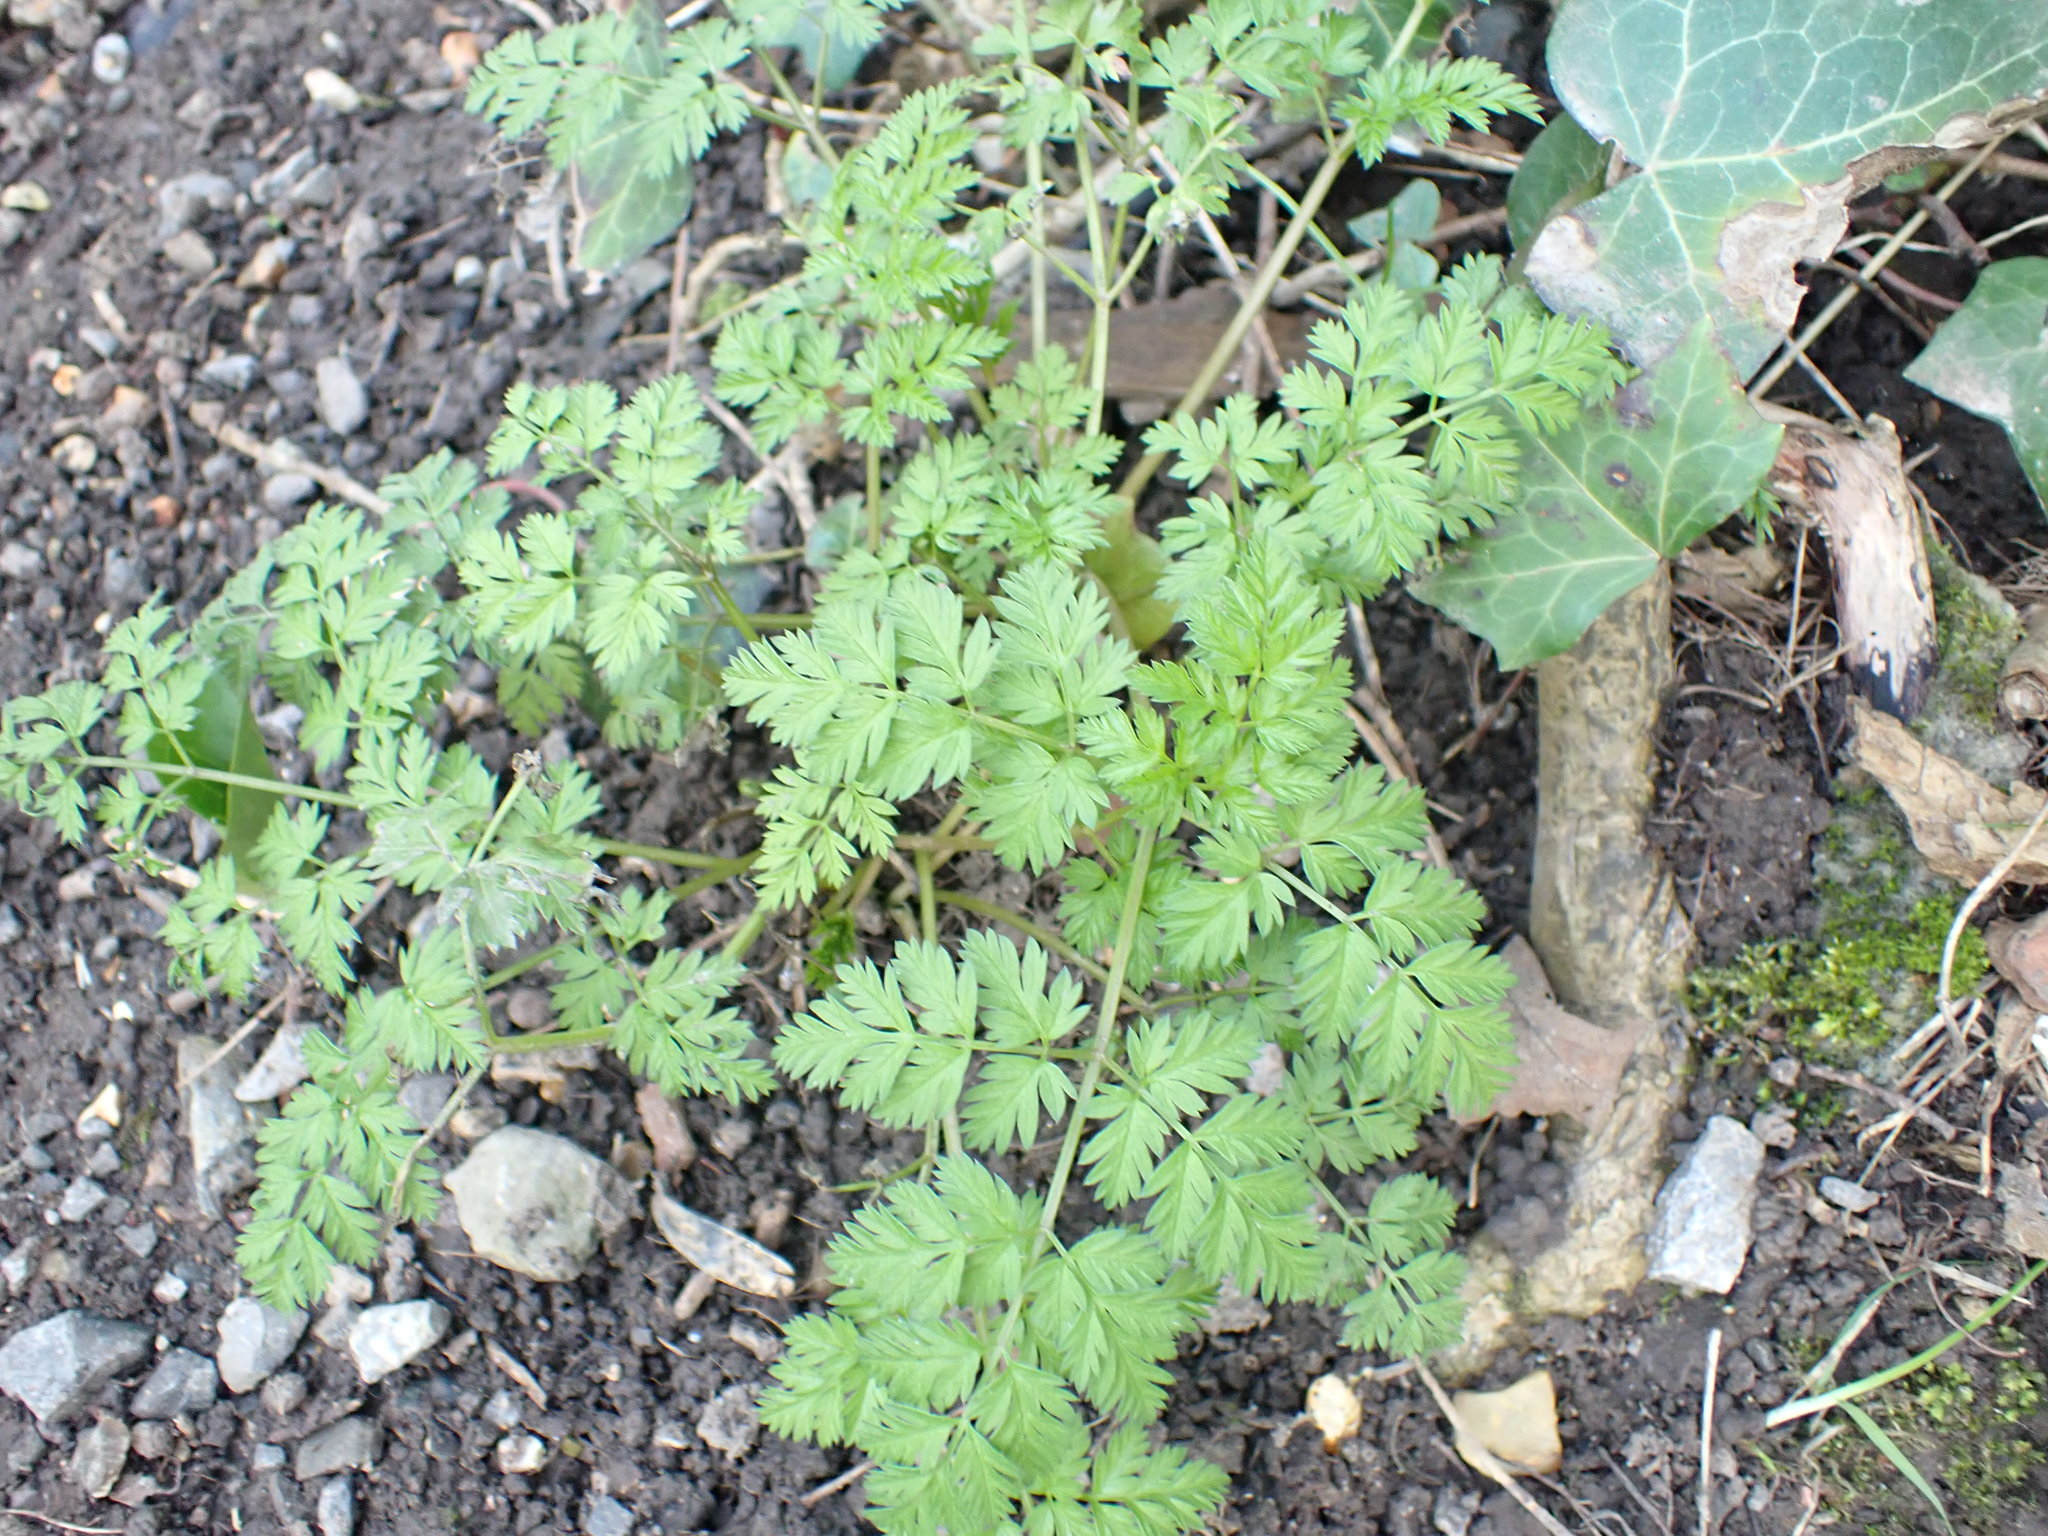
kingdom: Plantae
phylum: Tracheophyta
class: Magnoliopsida
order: Apiales
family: Apiaceae
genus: Anthriscus
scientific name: Anthriscus sylvestris
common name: Cow parsley
